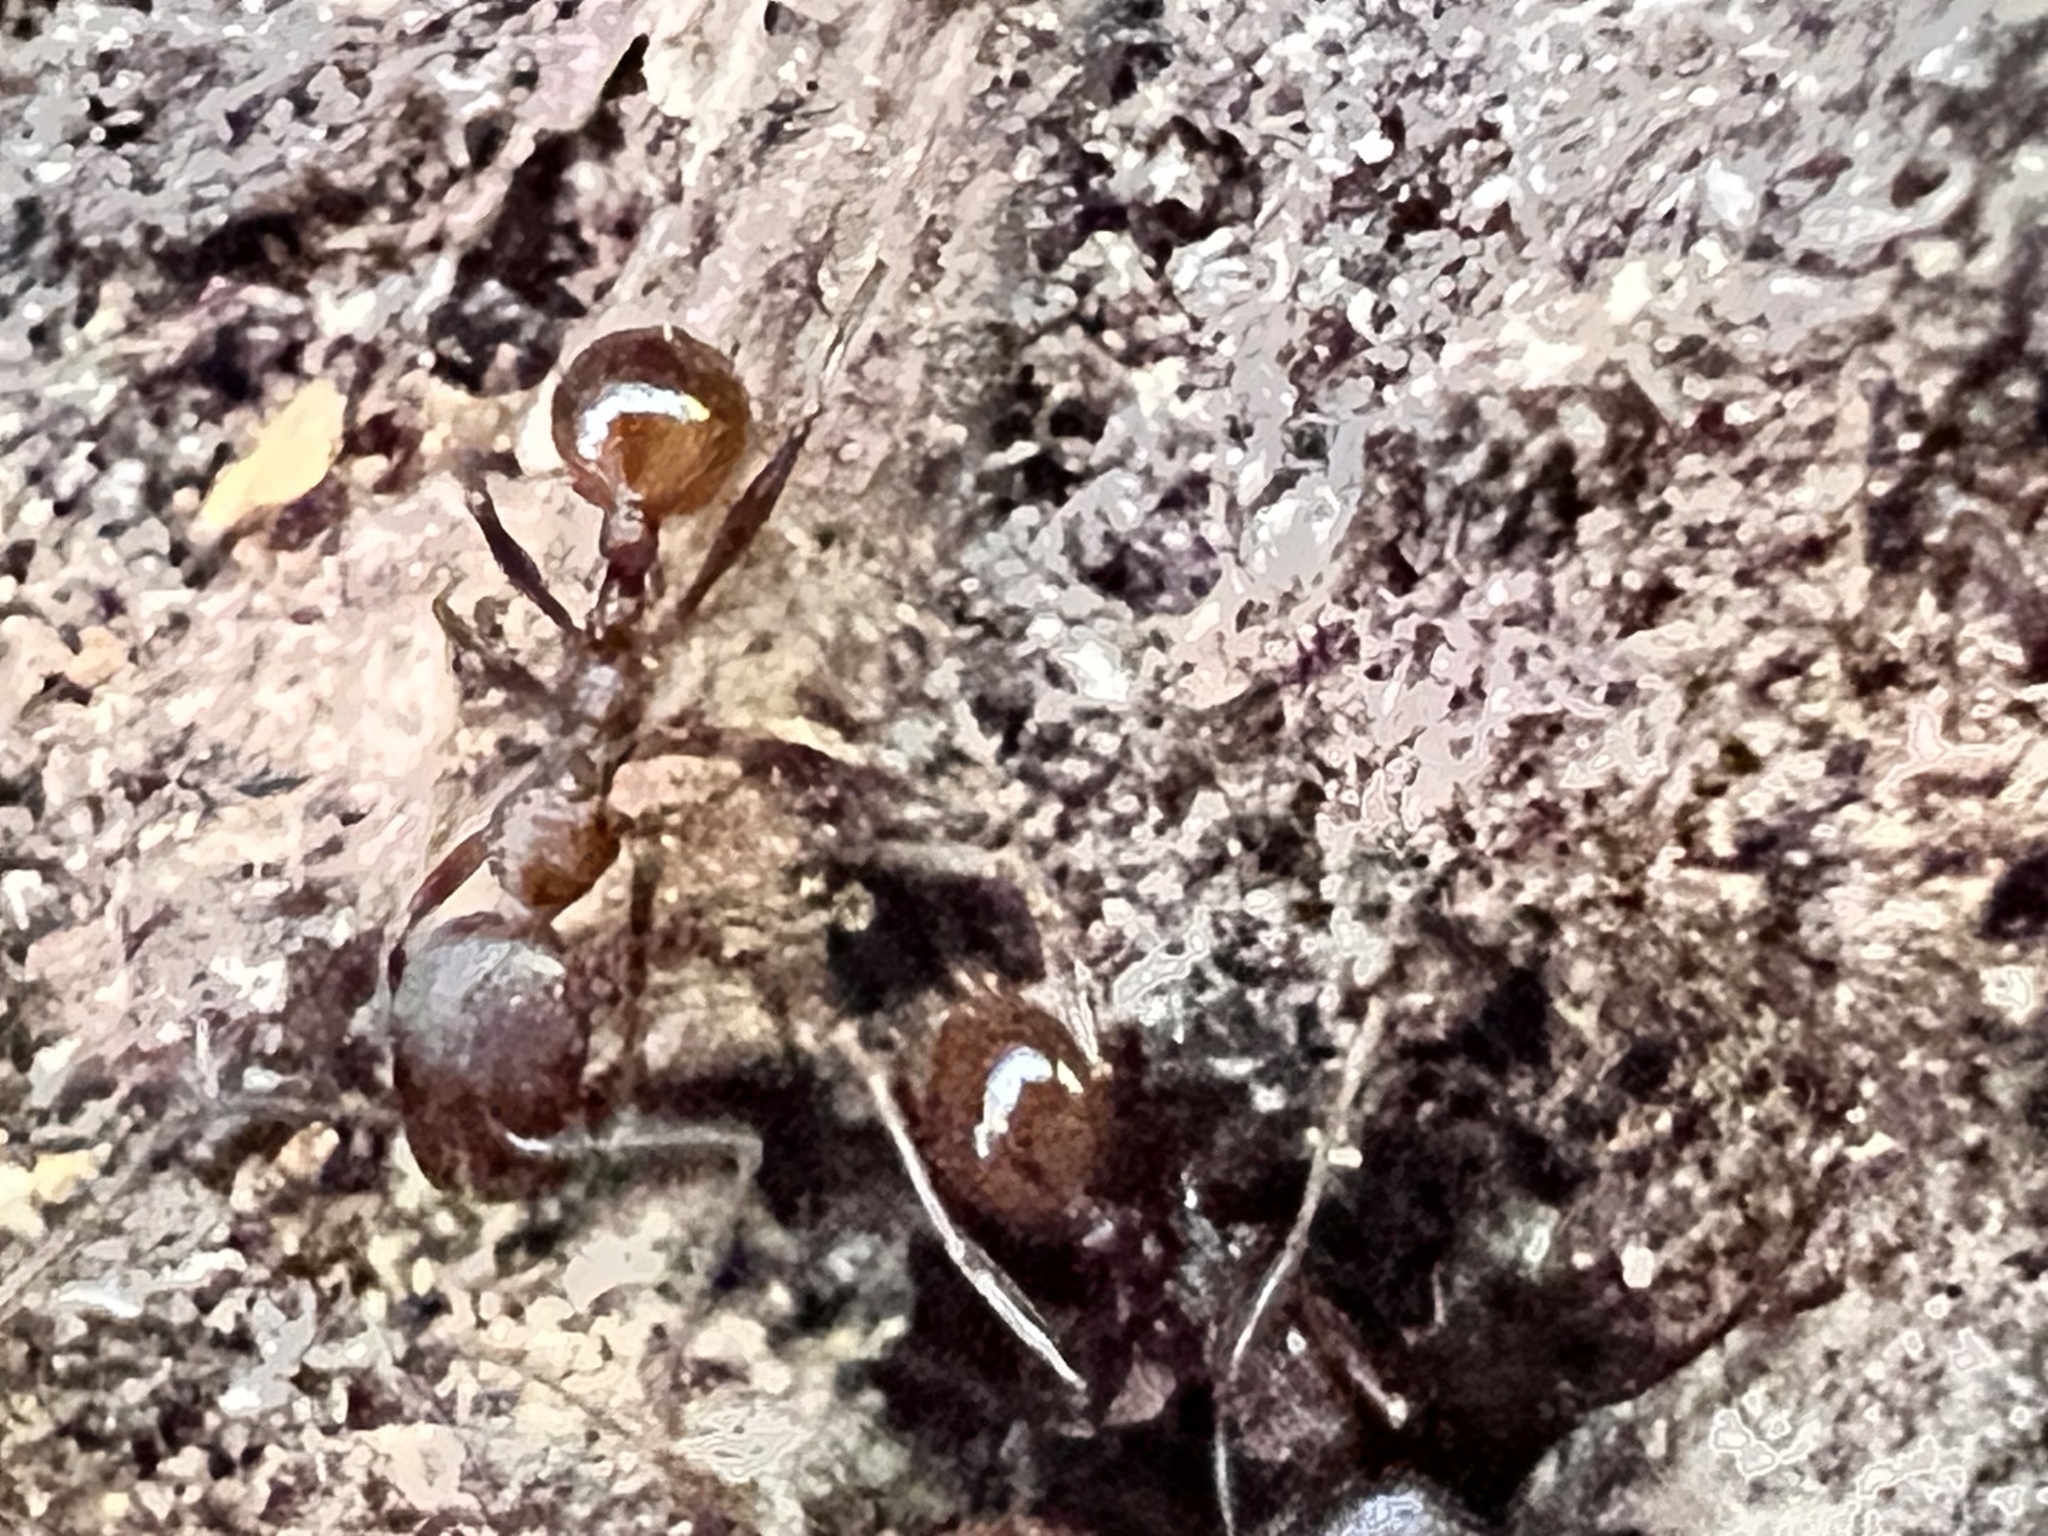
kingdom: Animalia
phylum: Arthropoda
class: Insecta
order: Hymenoptera
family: Formicidae
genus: Aphaenogaster
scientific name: Aphaenogaster fulva
